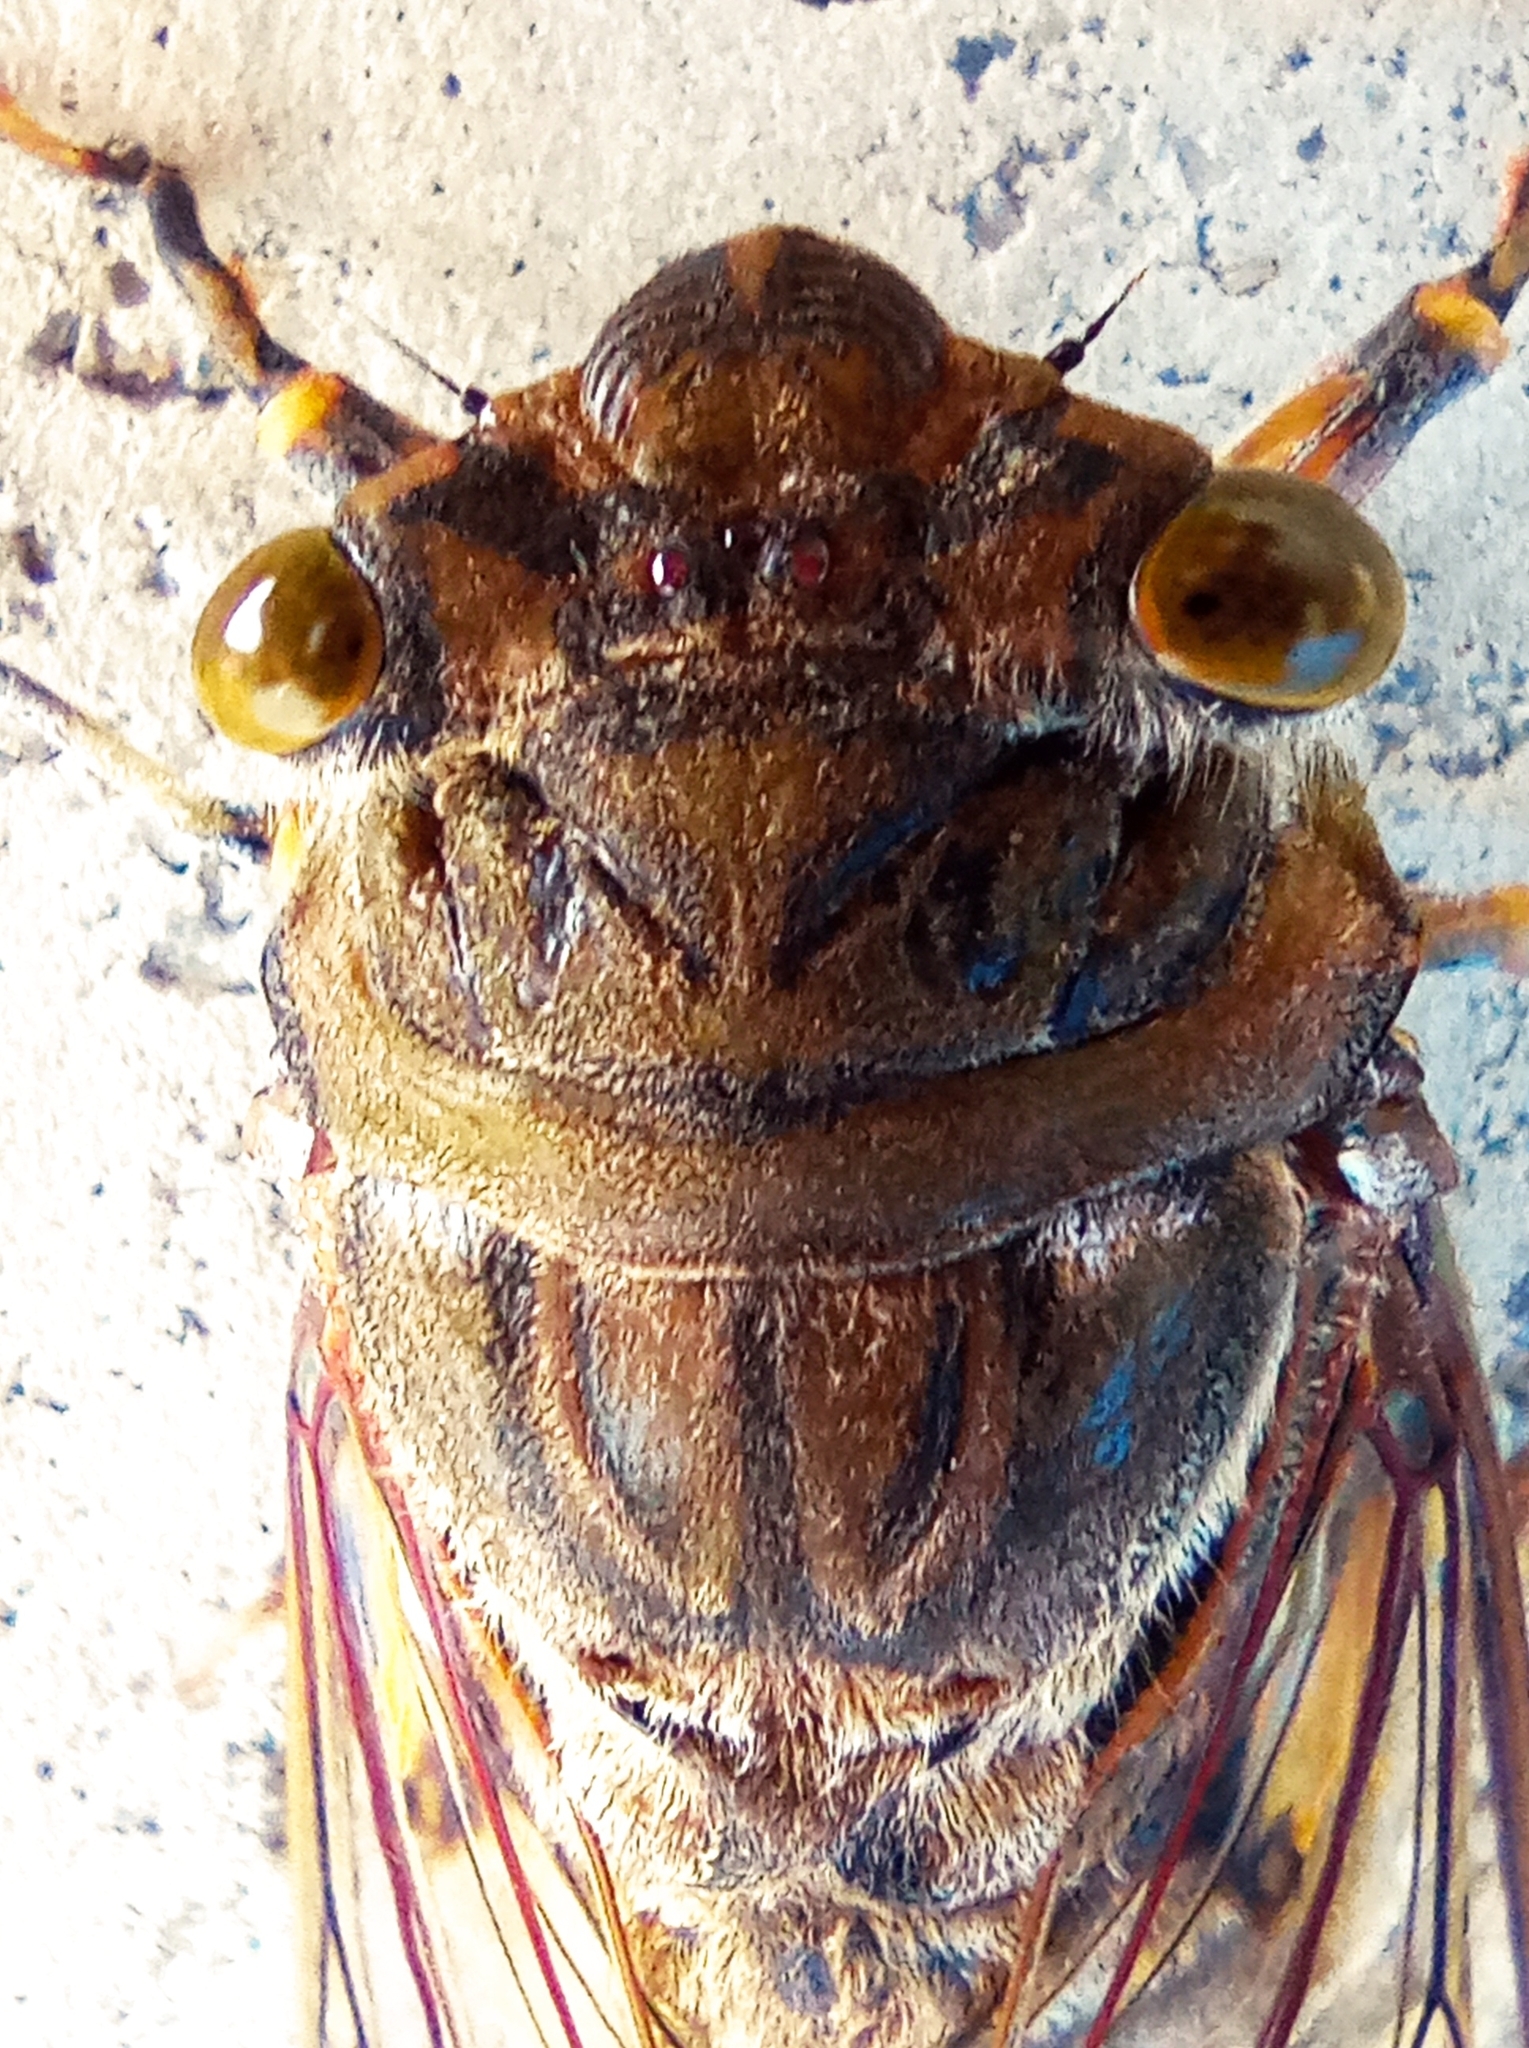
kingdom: Animalia
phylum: Arthropoda
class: Insecta
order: Hemiptera
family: Cicadidae
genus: Quesada
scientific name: Quesada gigas
